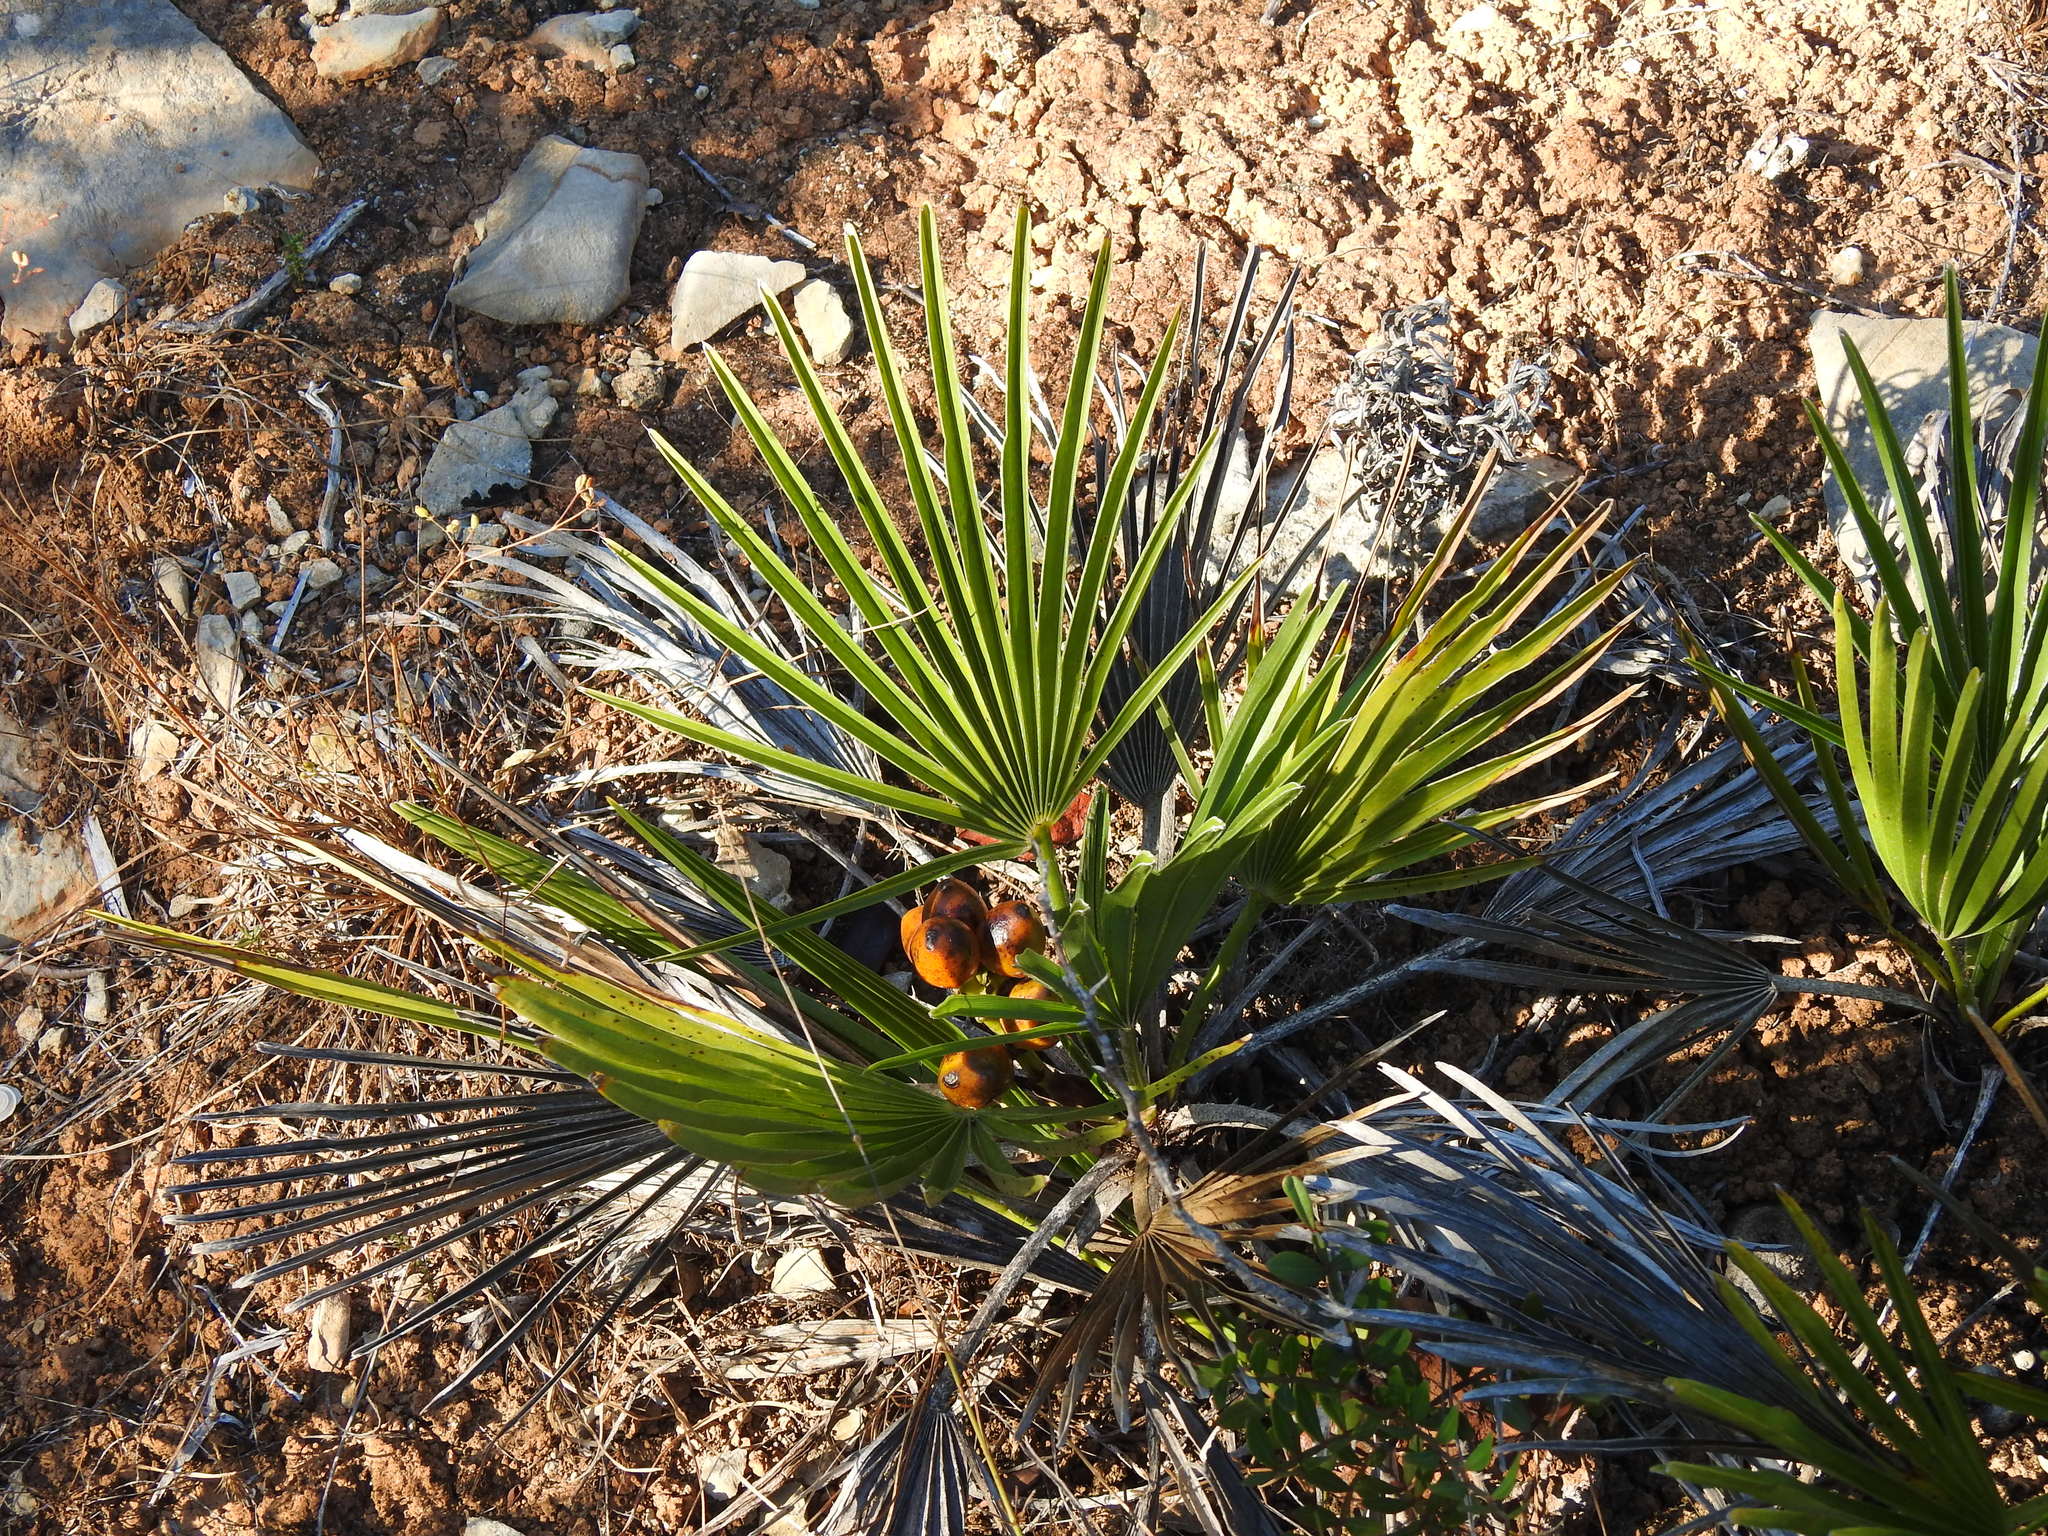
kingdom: Plantae
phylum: Tracheophyta
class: Liliopsida
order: Arecales
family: Arecaceae
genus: Chamaerops
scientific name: Chamaerops humilis
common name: Dwarf fan palm
